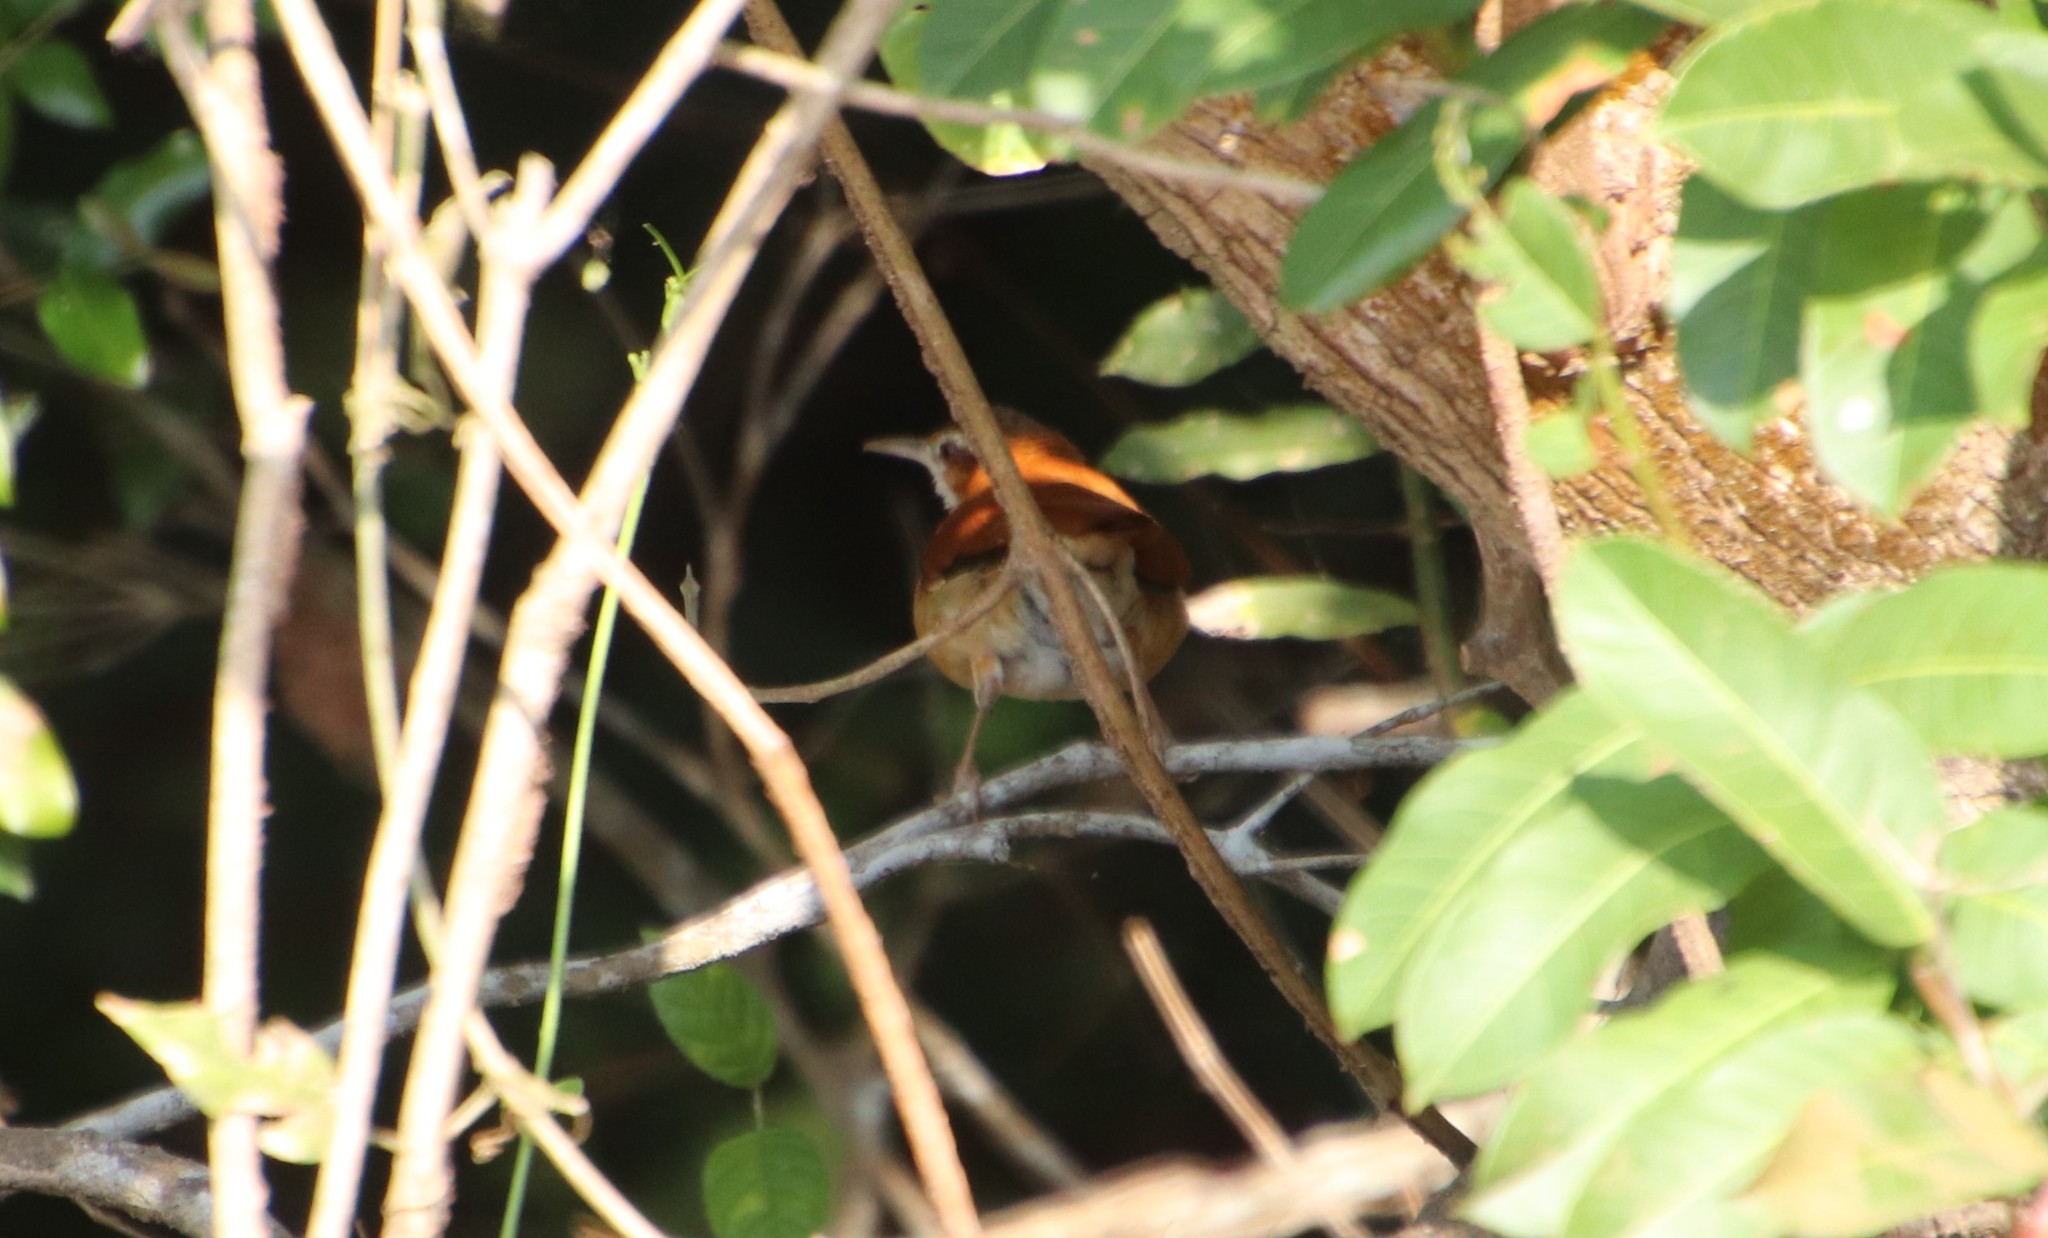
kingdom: Animalia
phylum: Chordata
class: Aves
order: Passeriformes
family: Furnariidae
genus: Furnarius
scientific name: Furnarius leucopus
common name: Pale-legged hornero
